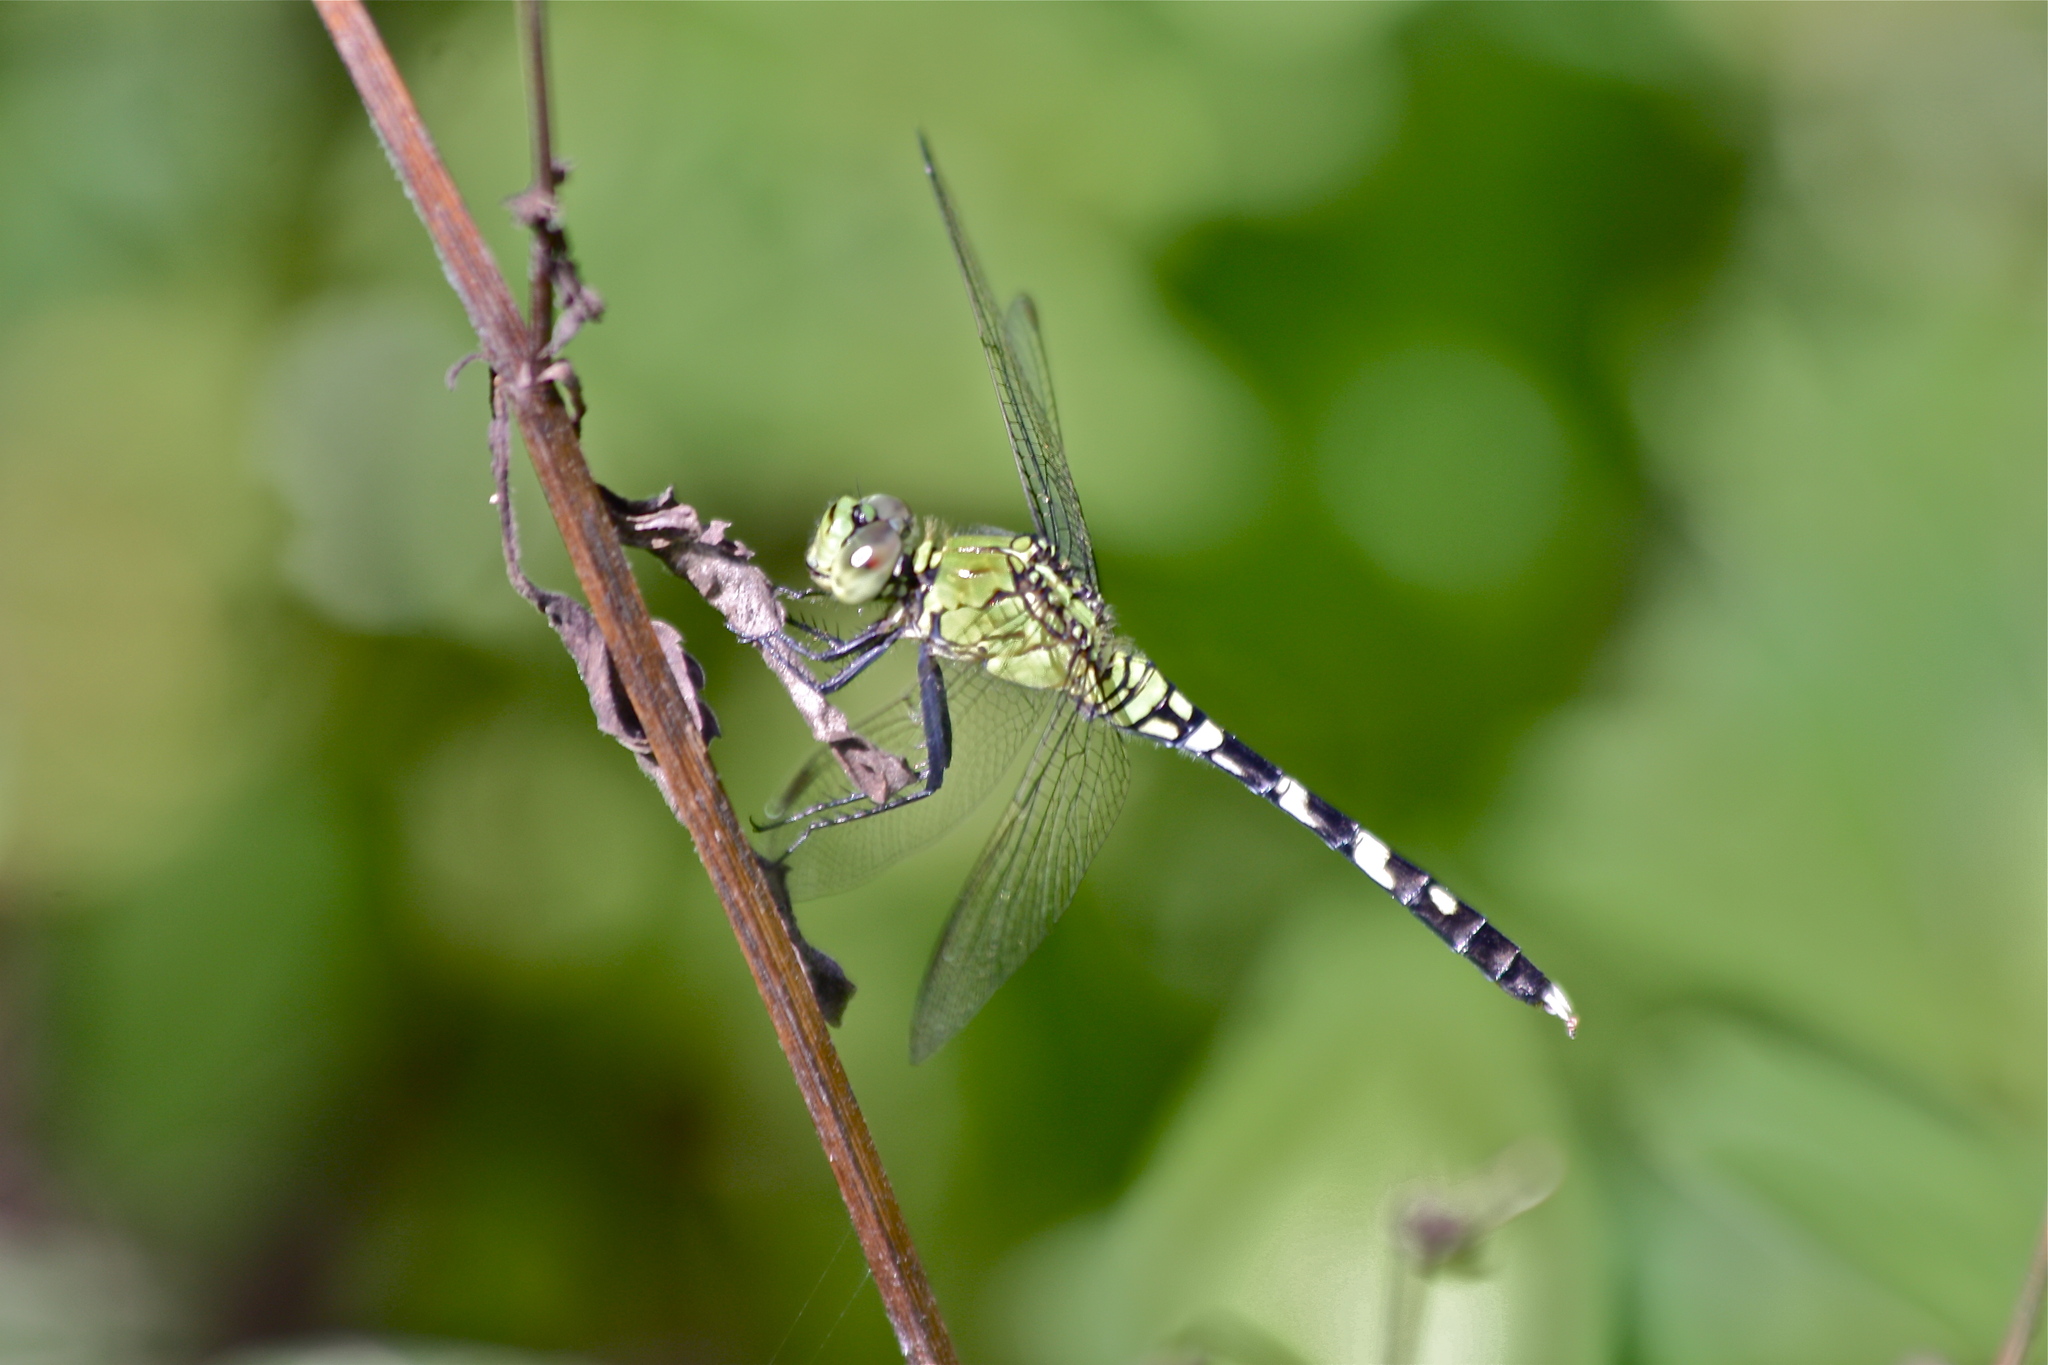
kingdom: Animalia
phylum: Arthropoda
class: Insecta
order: Odonata
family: Libellulidae
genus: Erythemis
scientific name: Erythemis simplicicollis
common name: Eastern pondhawk
